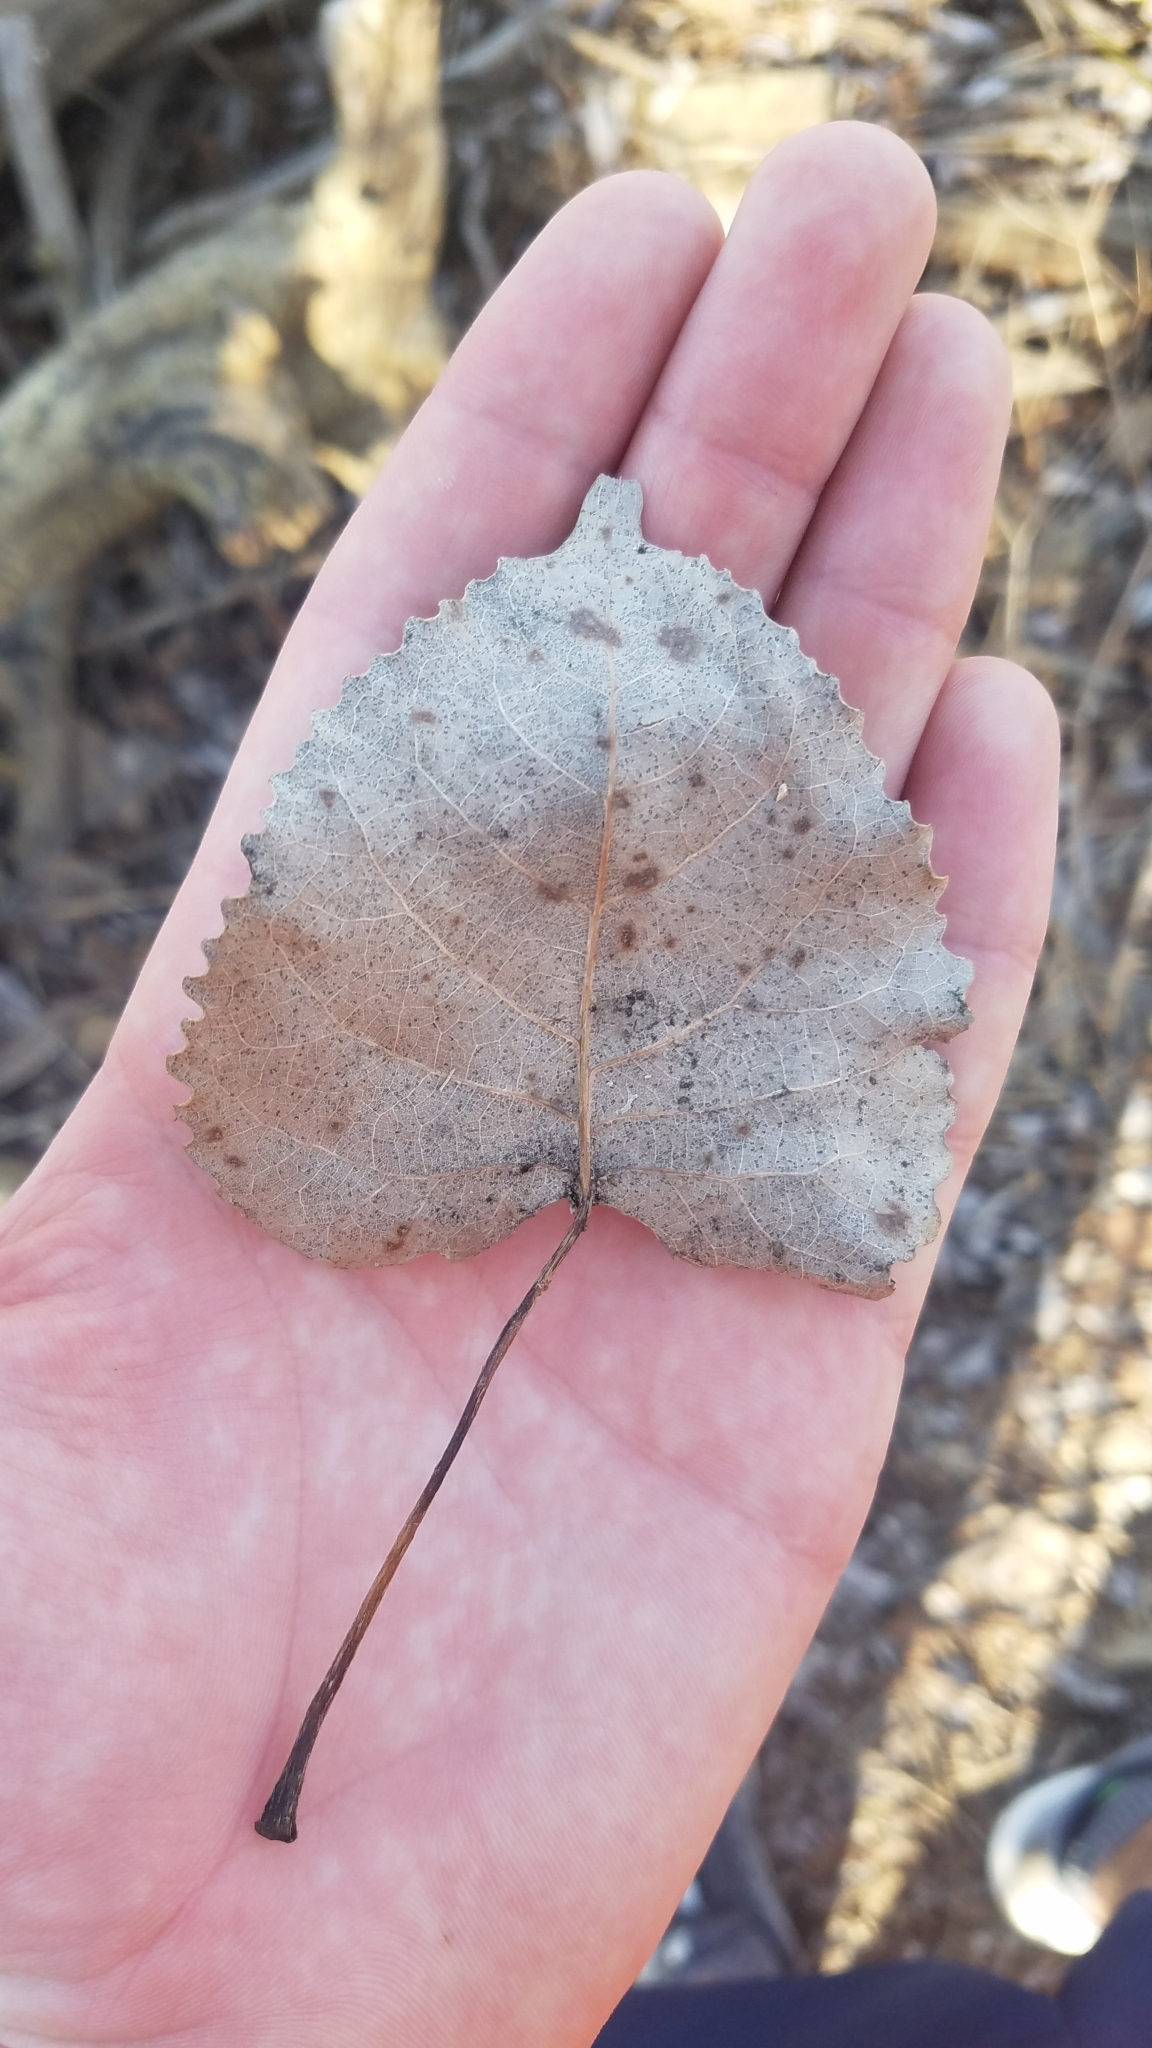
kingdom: Plantae
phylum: Tracheophyta
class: Magnoliopsida
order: Malpighiales
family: Salicaceae
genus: Populus
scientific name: Populus deltoides
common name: Eastern cottonwood
